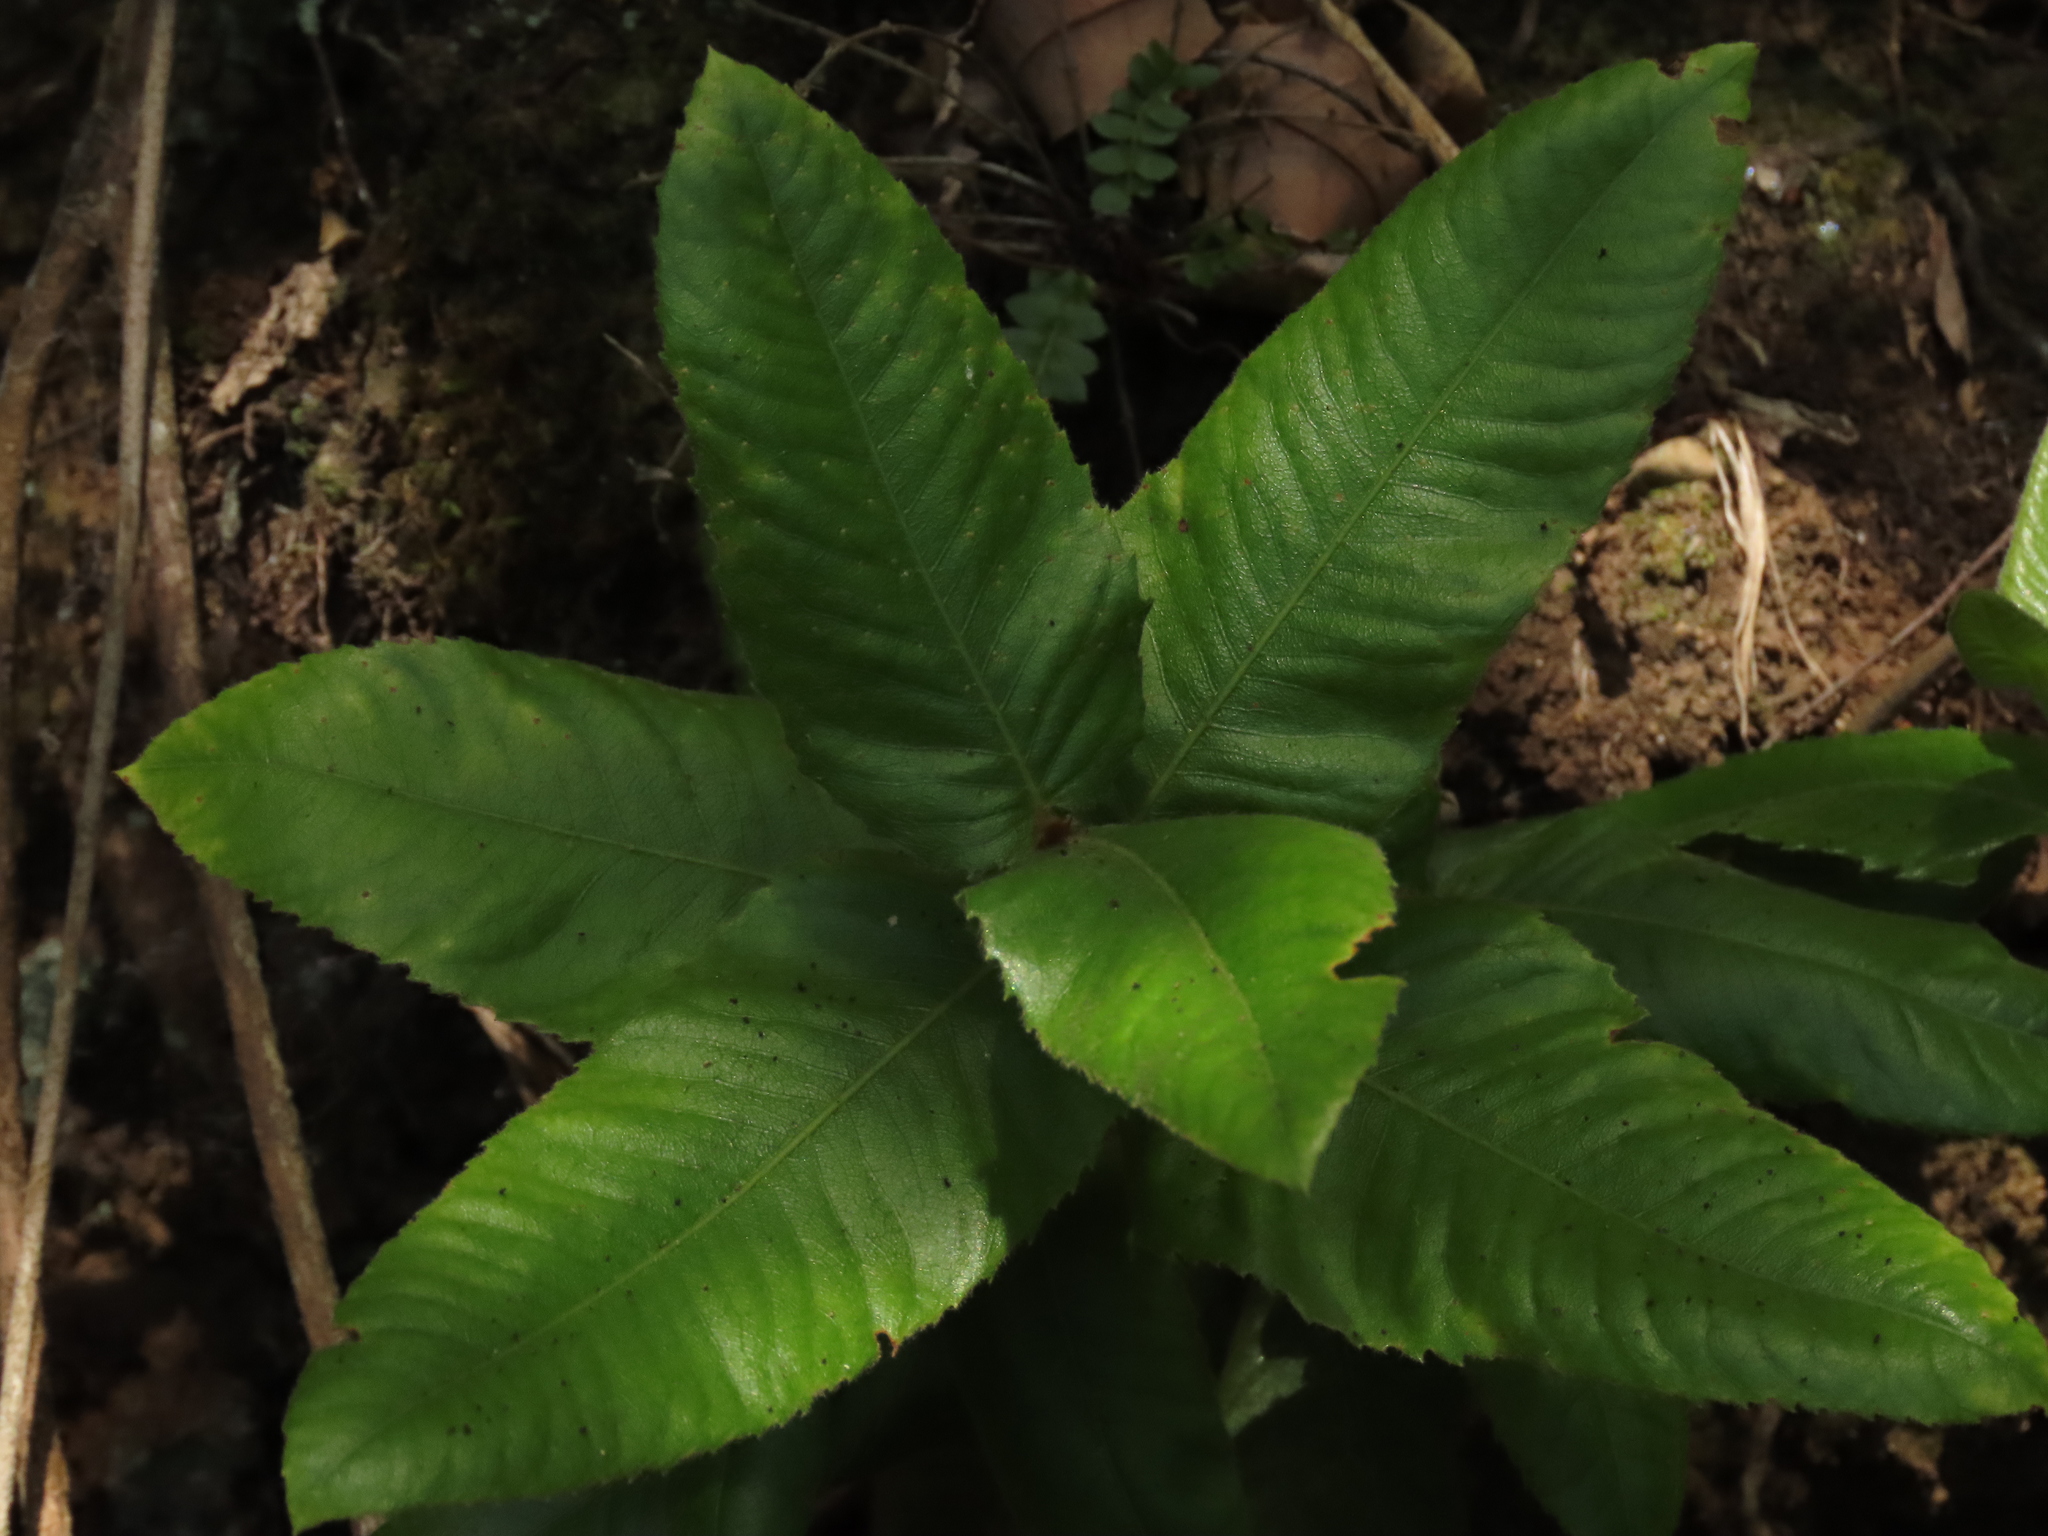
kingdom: Plantae
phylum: Tracheophyta
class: Magnoliopsida
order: Oxalidales
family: Cunoniaceae
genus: Eucryphia
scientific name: Eucryphia cordifolia
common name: Ulmo
